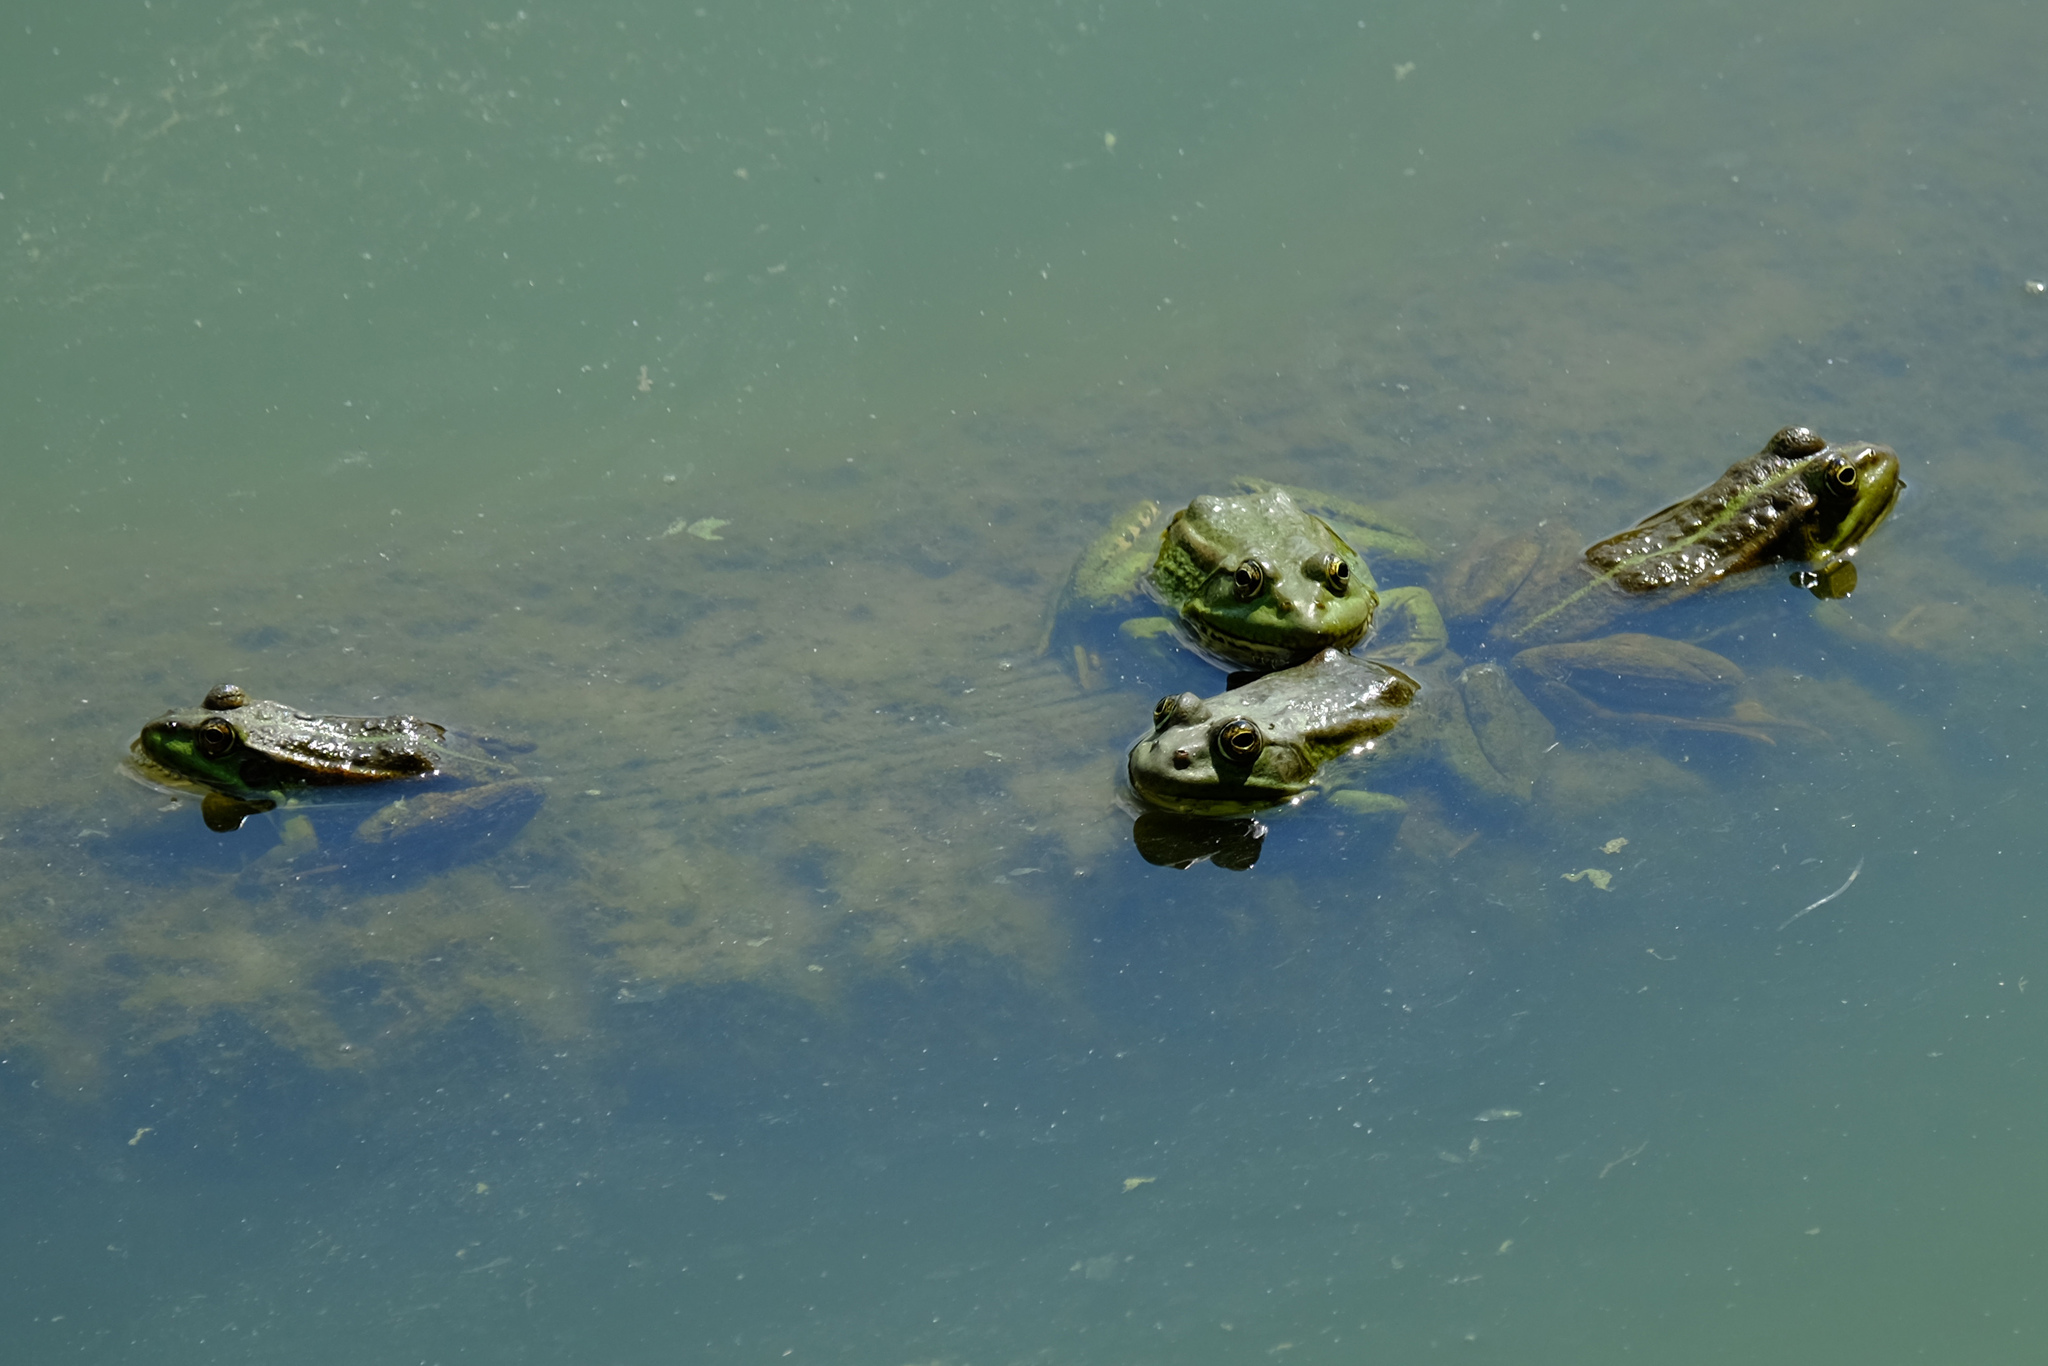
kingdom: Animalia
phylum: Chordata
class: Amphibia
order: Anura
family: Ranidae
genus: Pelophylax
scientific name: Pelophylax ridibundus
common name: Marsh frog
